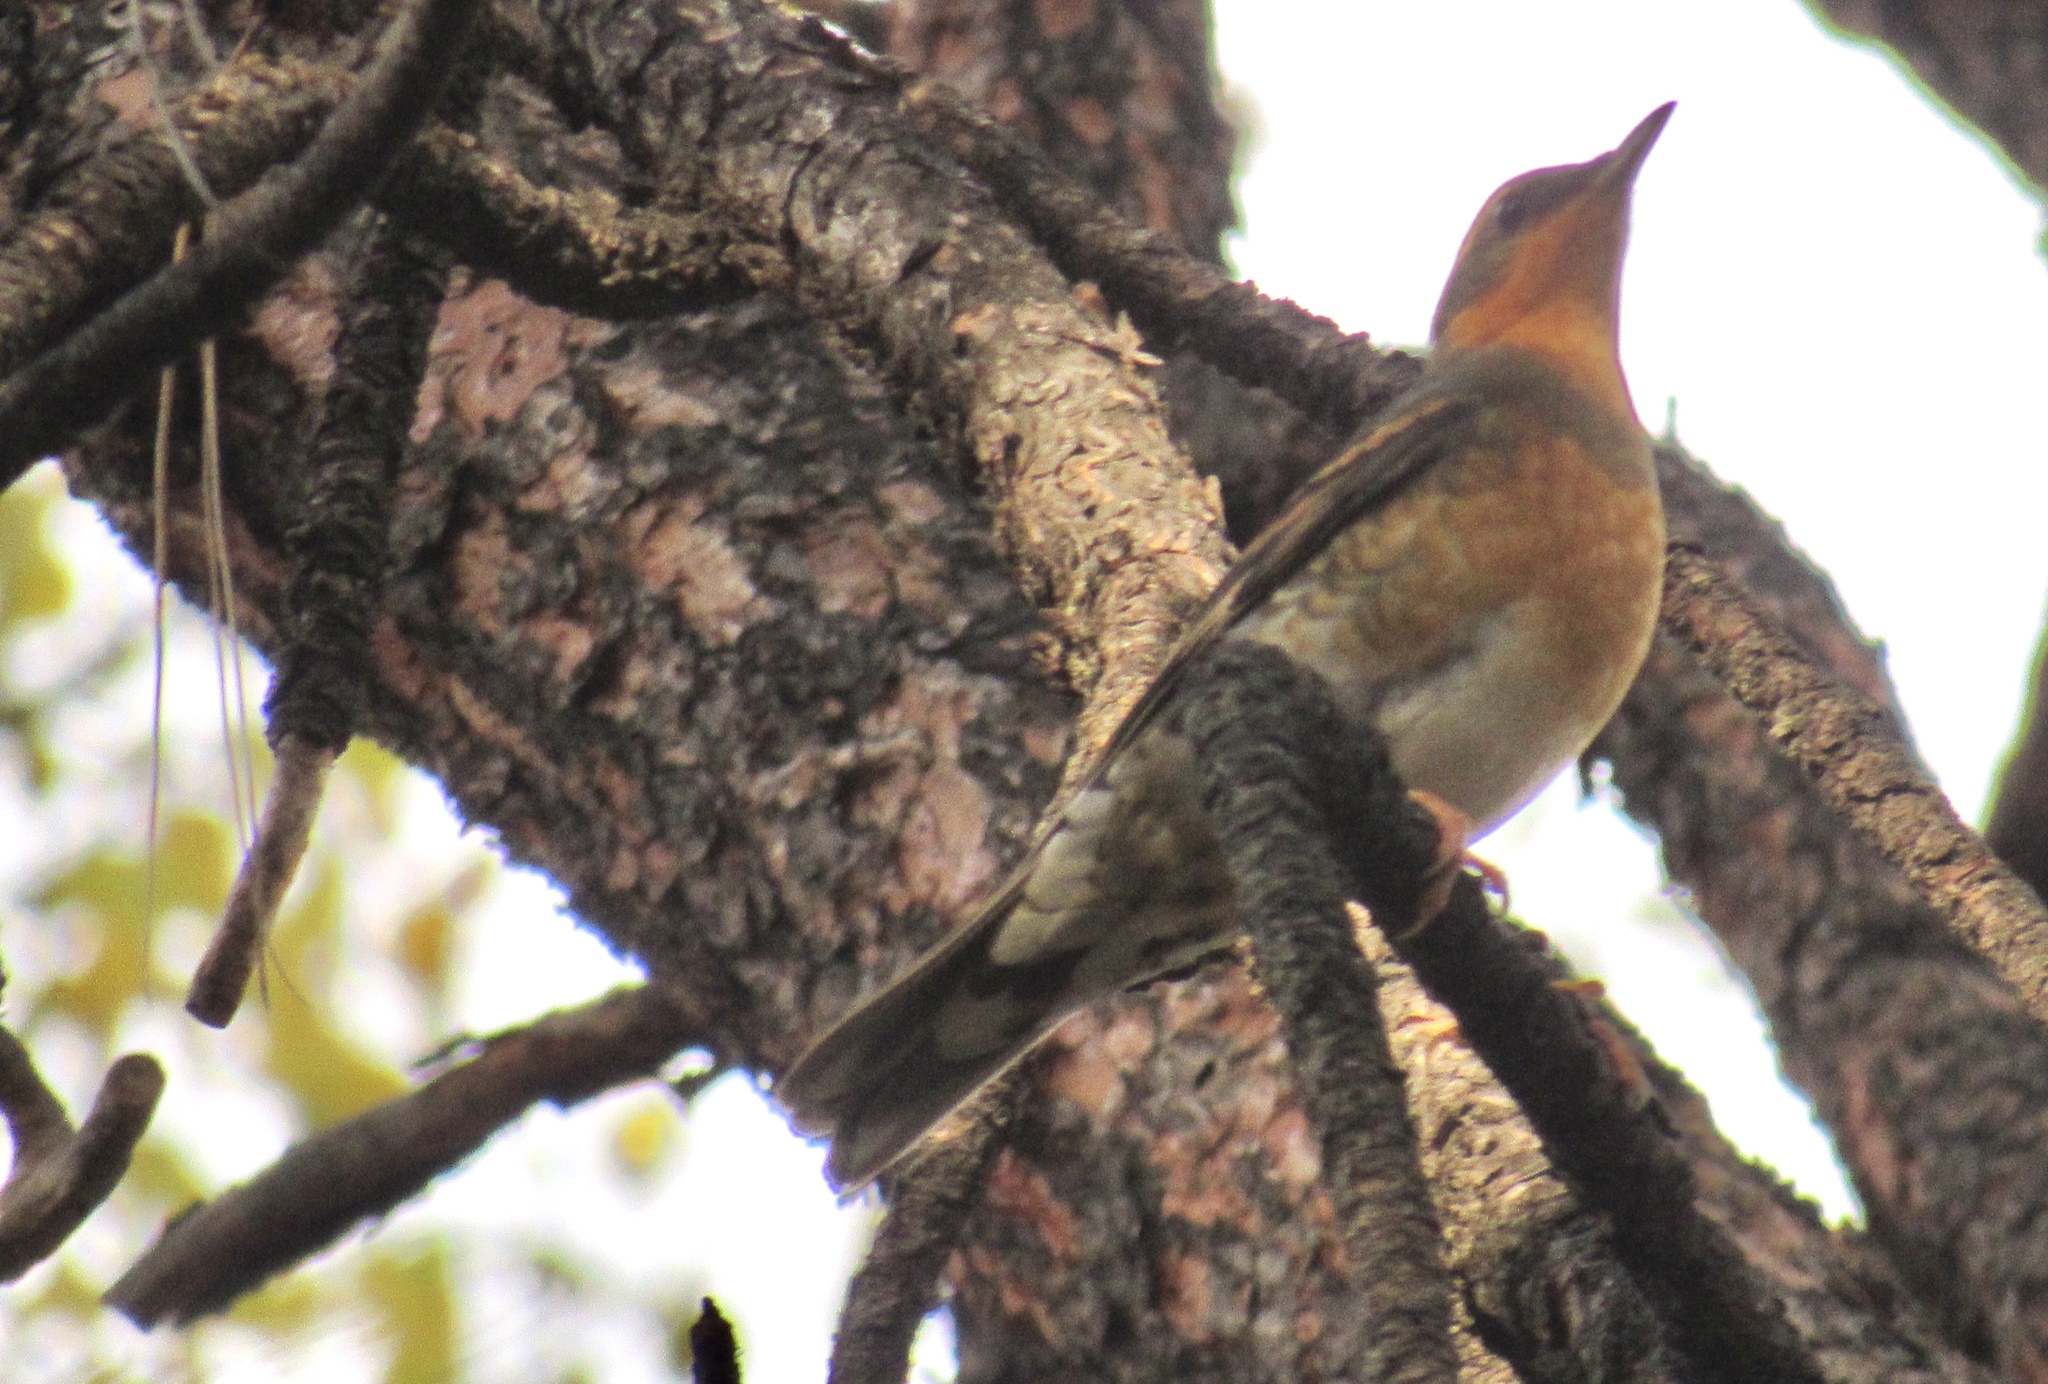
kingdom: Animalia
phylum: Chordata
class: Aves
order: Passeriformes
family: Turdidae
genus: Ixoreus
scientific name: Ixoreus naevius
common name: Varied thrush
